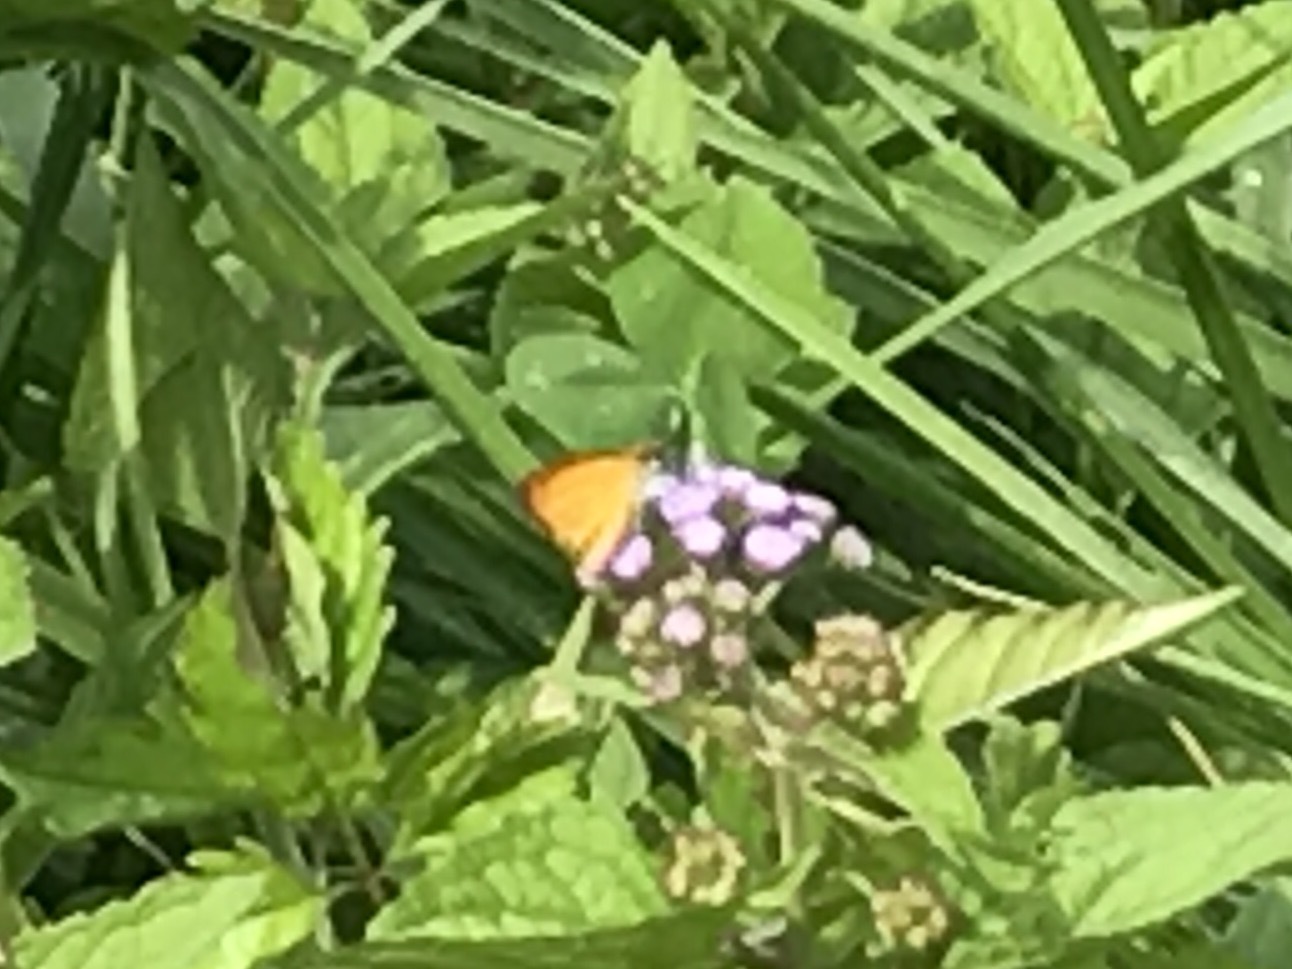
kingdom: Animalia
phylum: Arthropoda
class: Insecta
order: Lepidoptera
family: Hesperiidae
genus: Ancyloxypha
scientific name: Ancyloxypha numitor
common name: Least skipper
